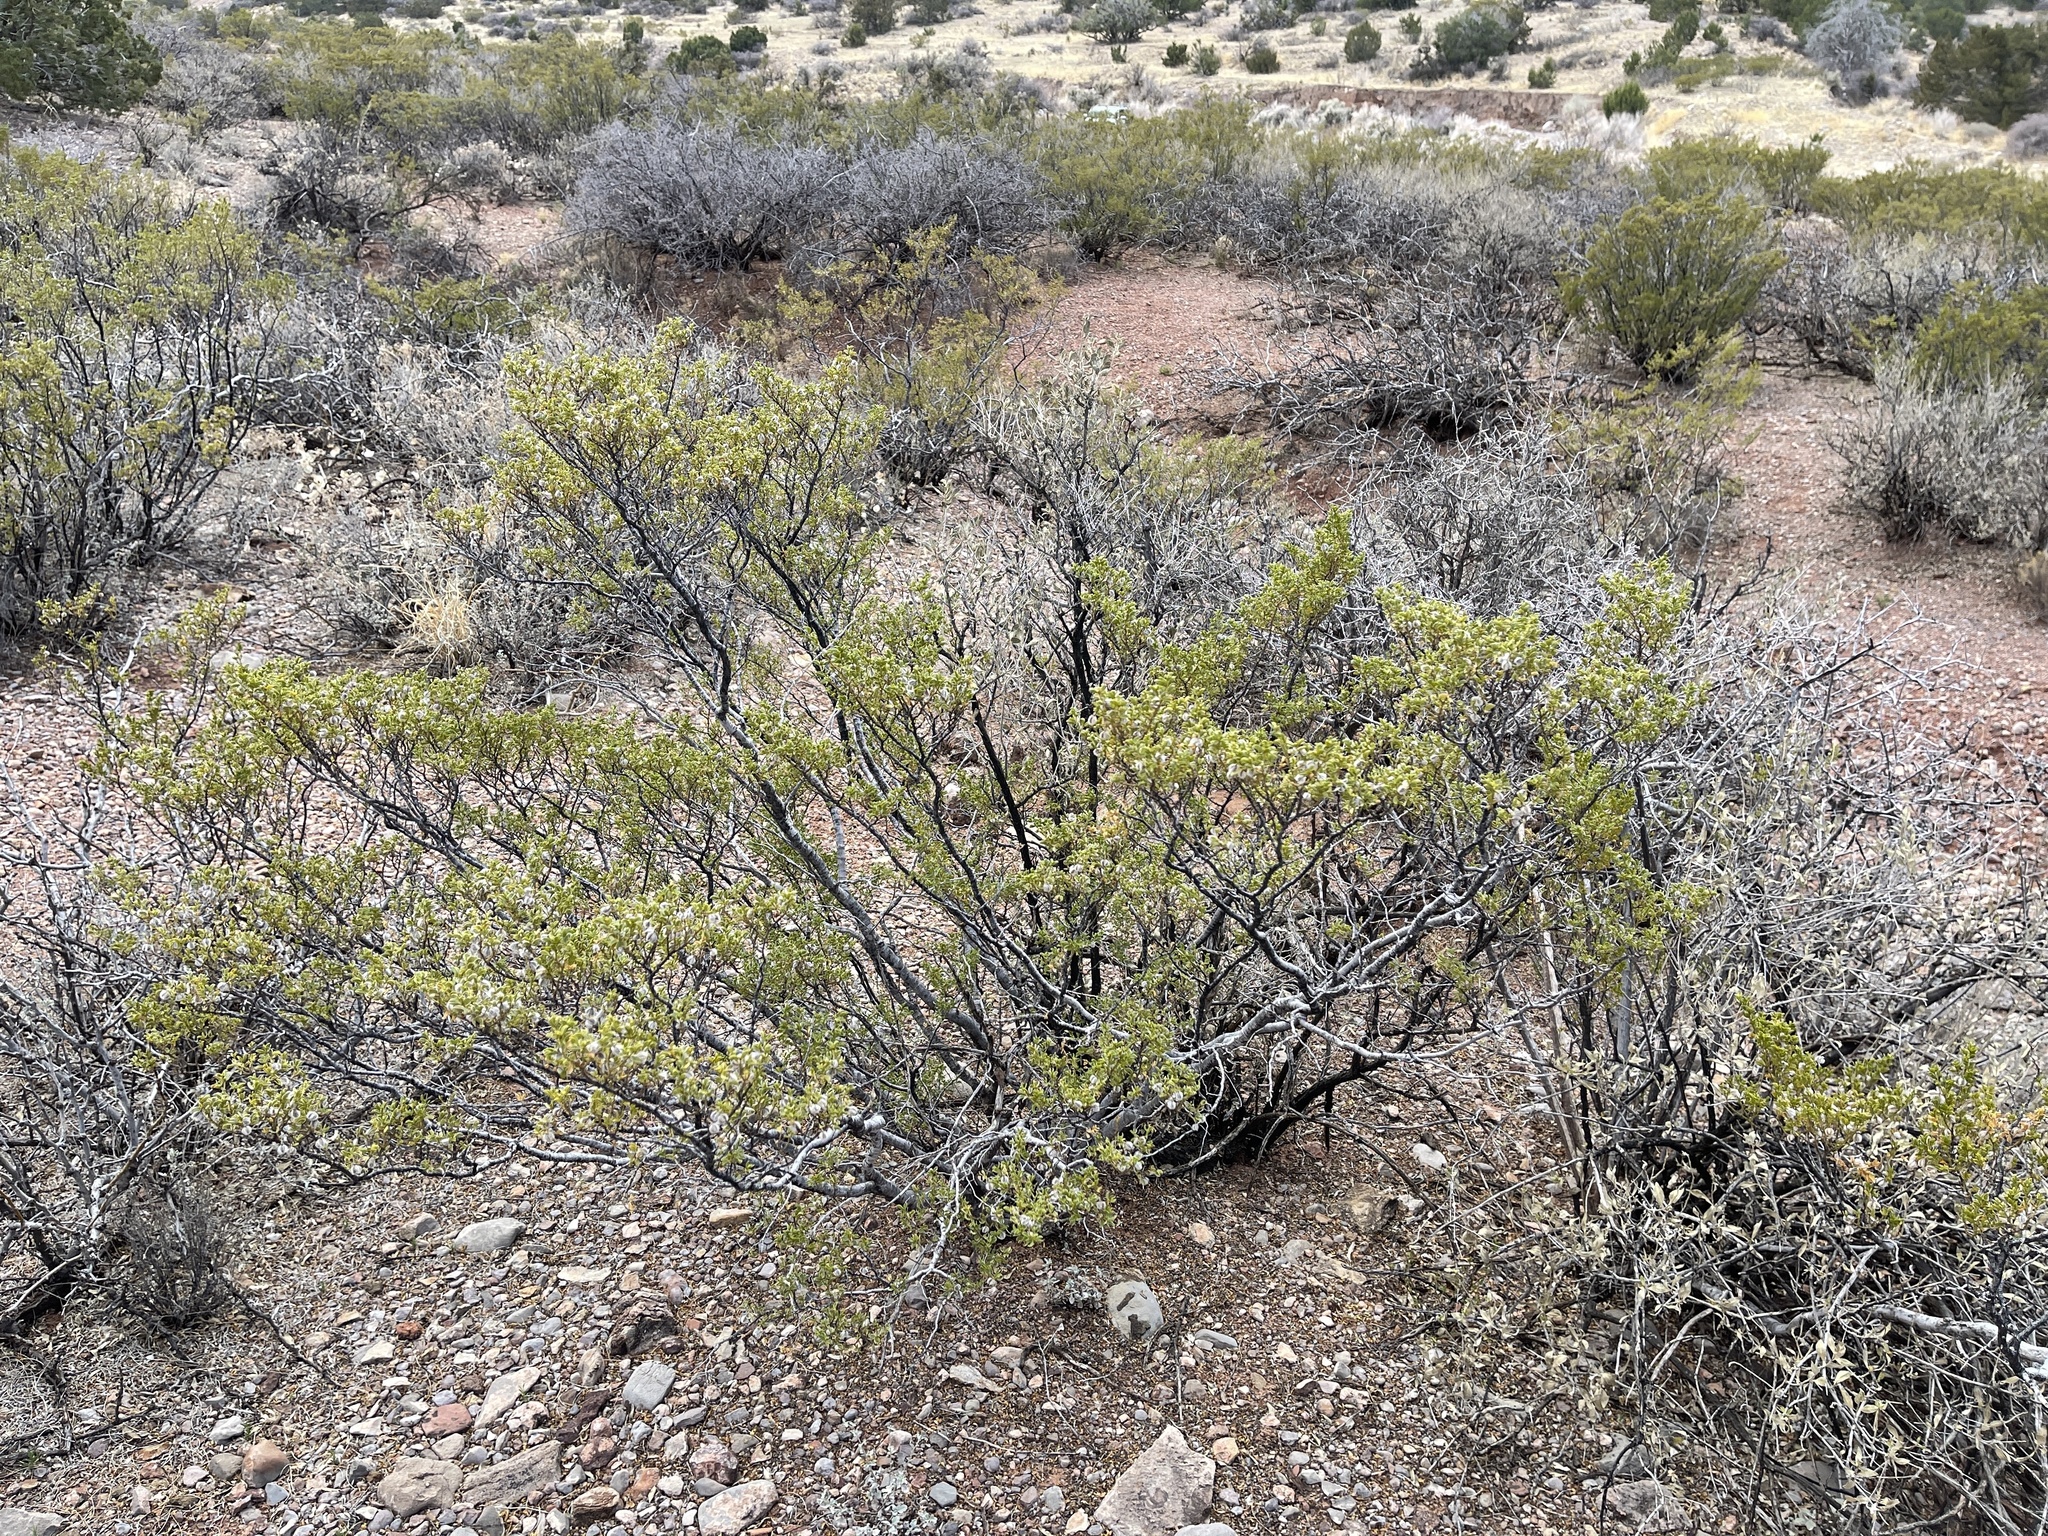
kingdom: Plantae
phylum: Tracheophyta
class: Magnoliopsida
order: Zygophyllales
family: Zygophyllaceae
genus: Larrea
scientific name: Larrea tridentata
